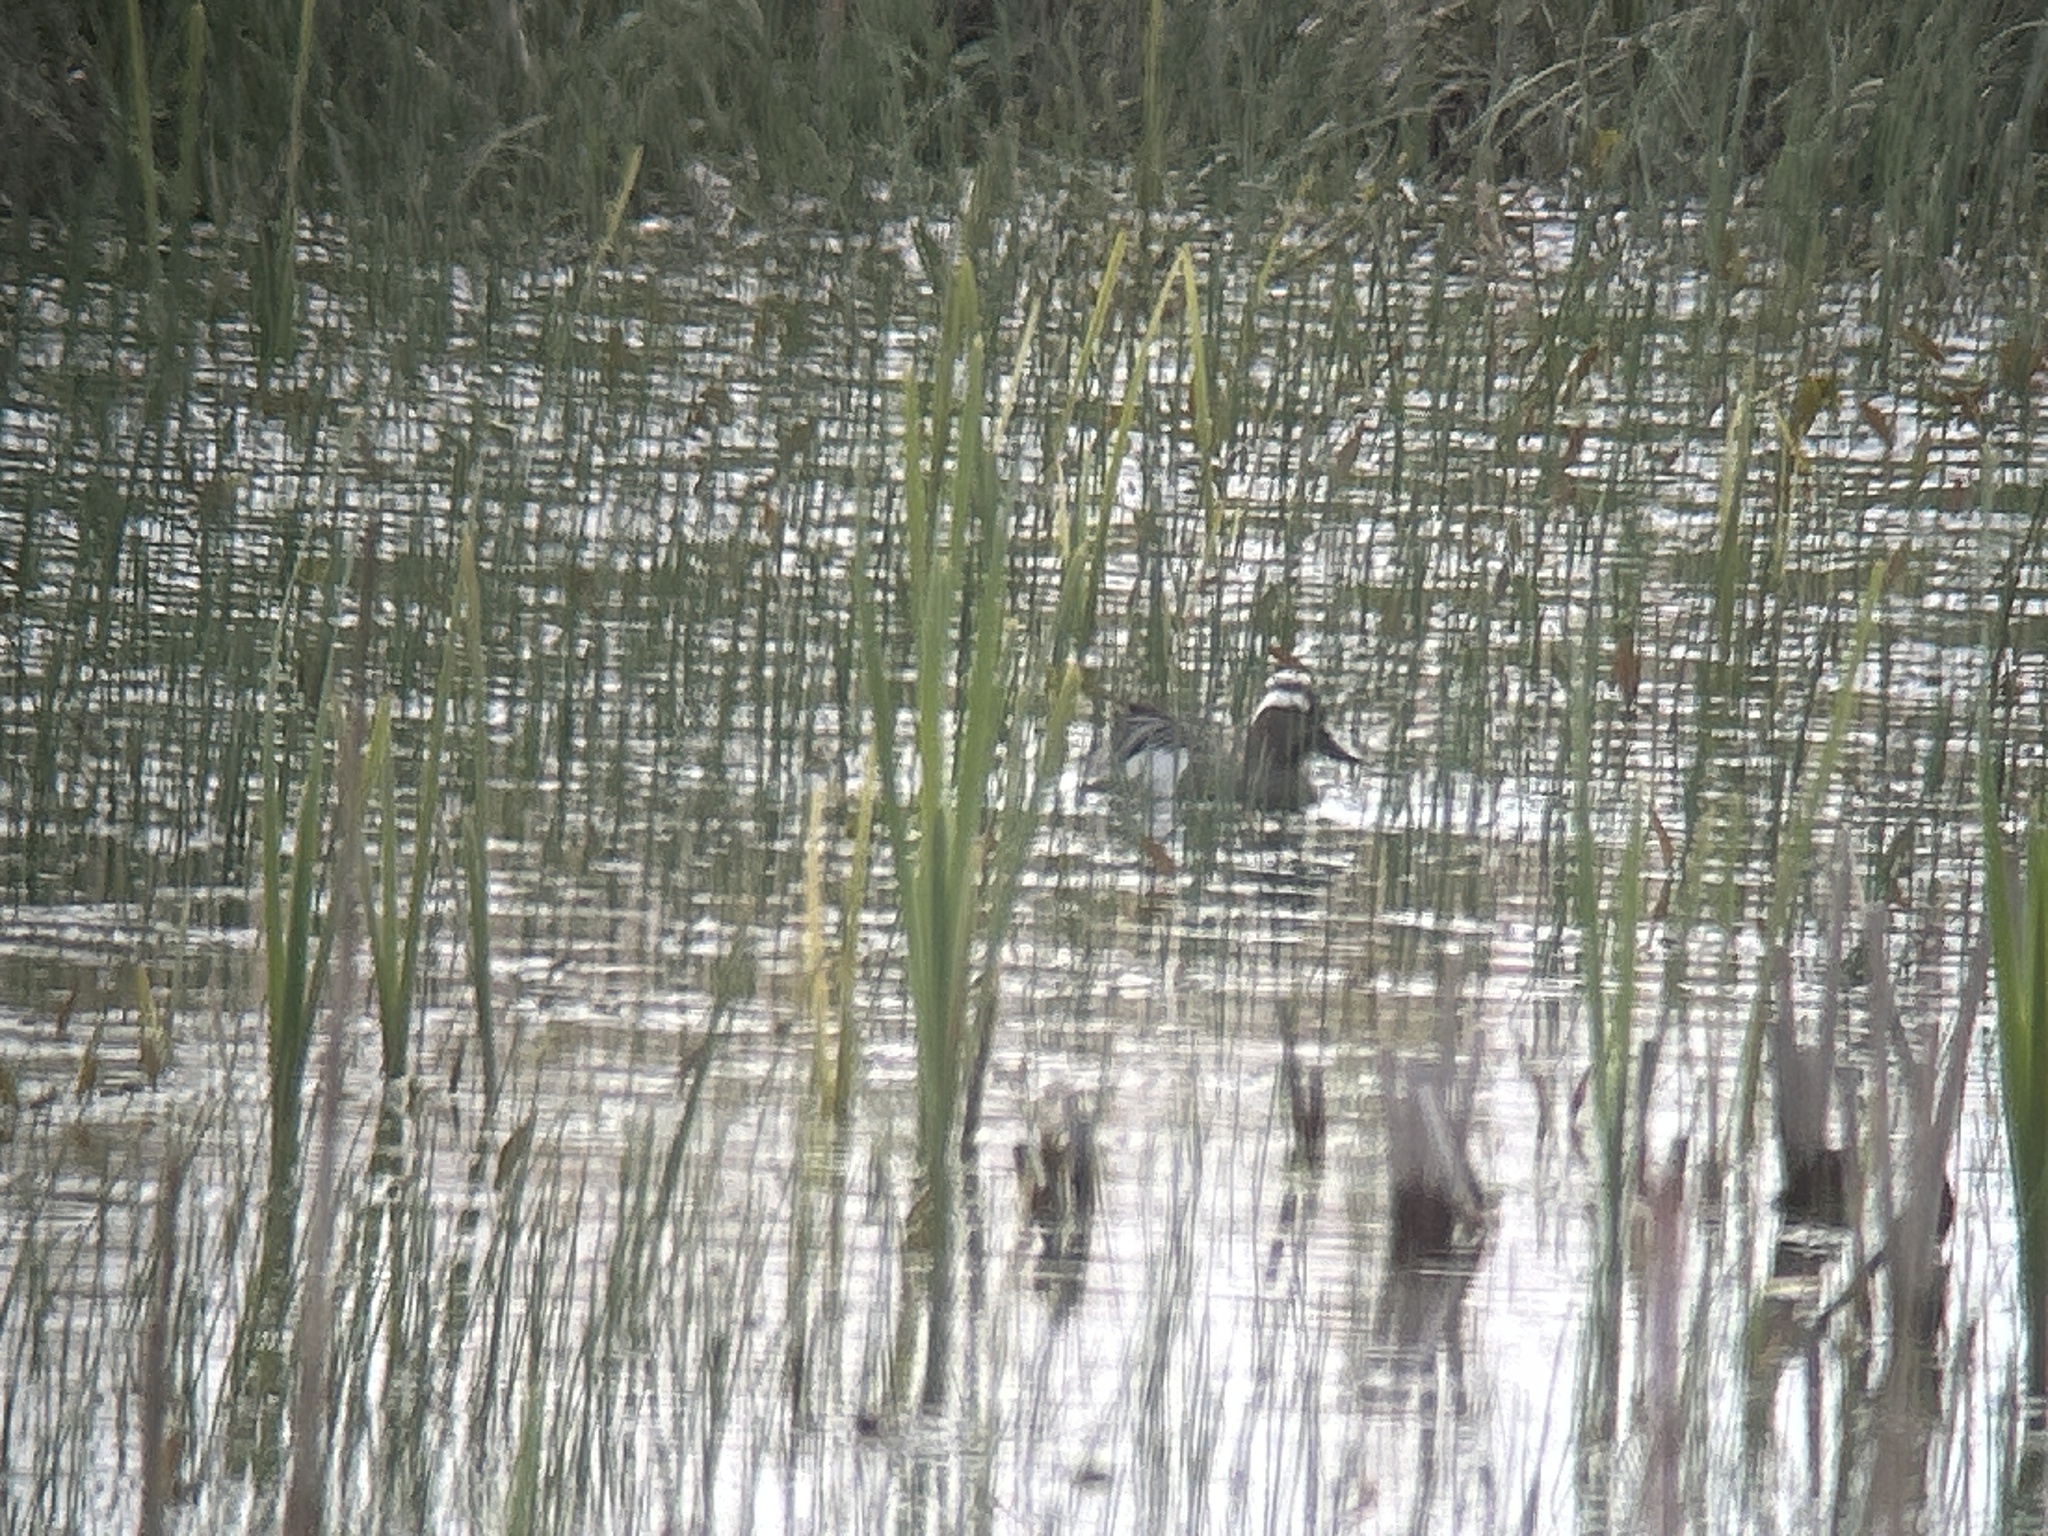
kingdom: Animalia
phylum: Chordata
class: Aves
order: Anseriformes
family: Anatidae
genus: Spatula
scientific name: Spatula querquedula
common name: Garganey
